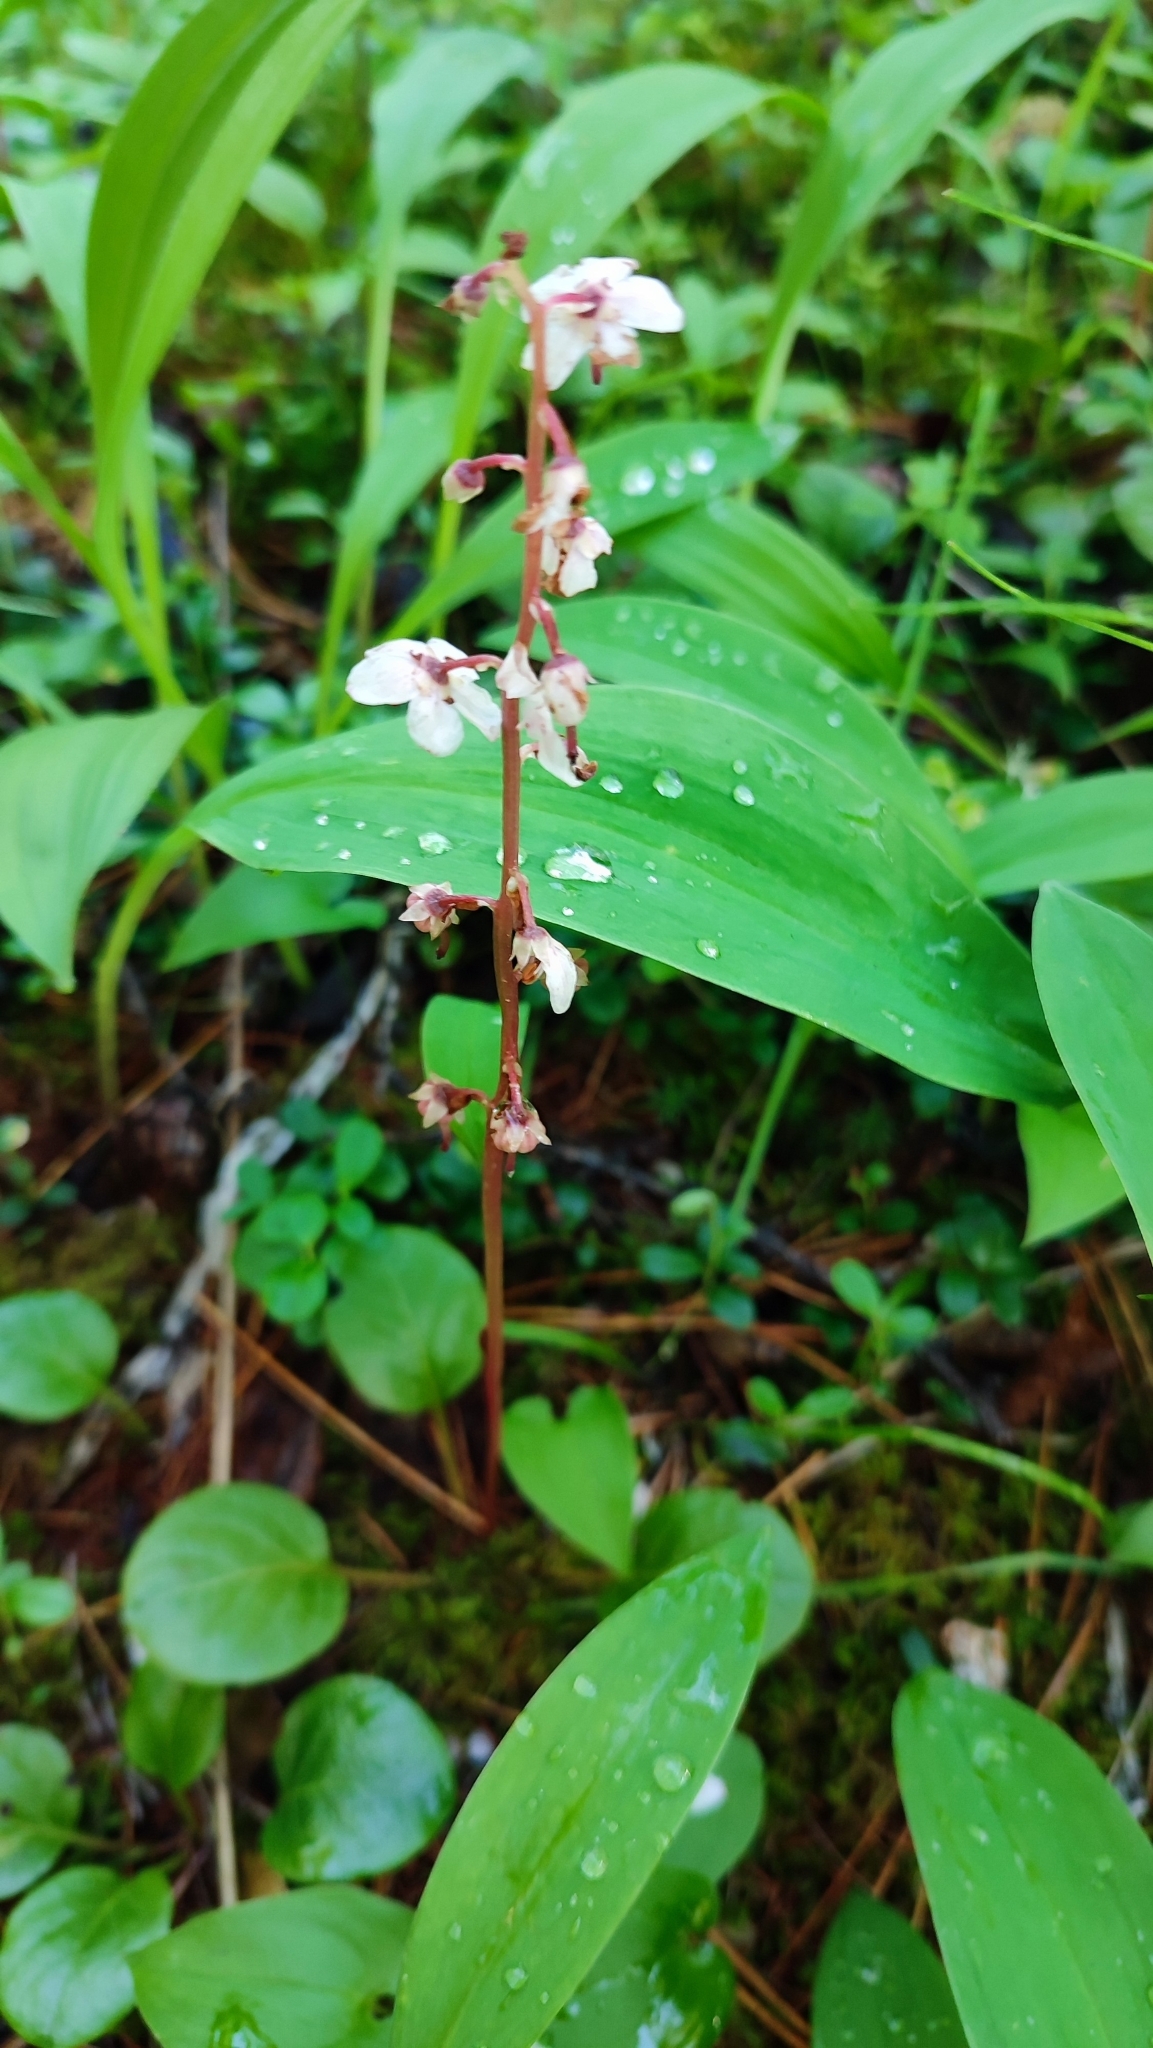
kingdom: Plantae
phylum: Tracheophyta
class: Magnoliopsida
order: Ericales
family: Ericaceae
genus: Pyrola
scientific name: Pyrola asarifolia
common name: Bog wintergreen
